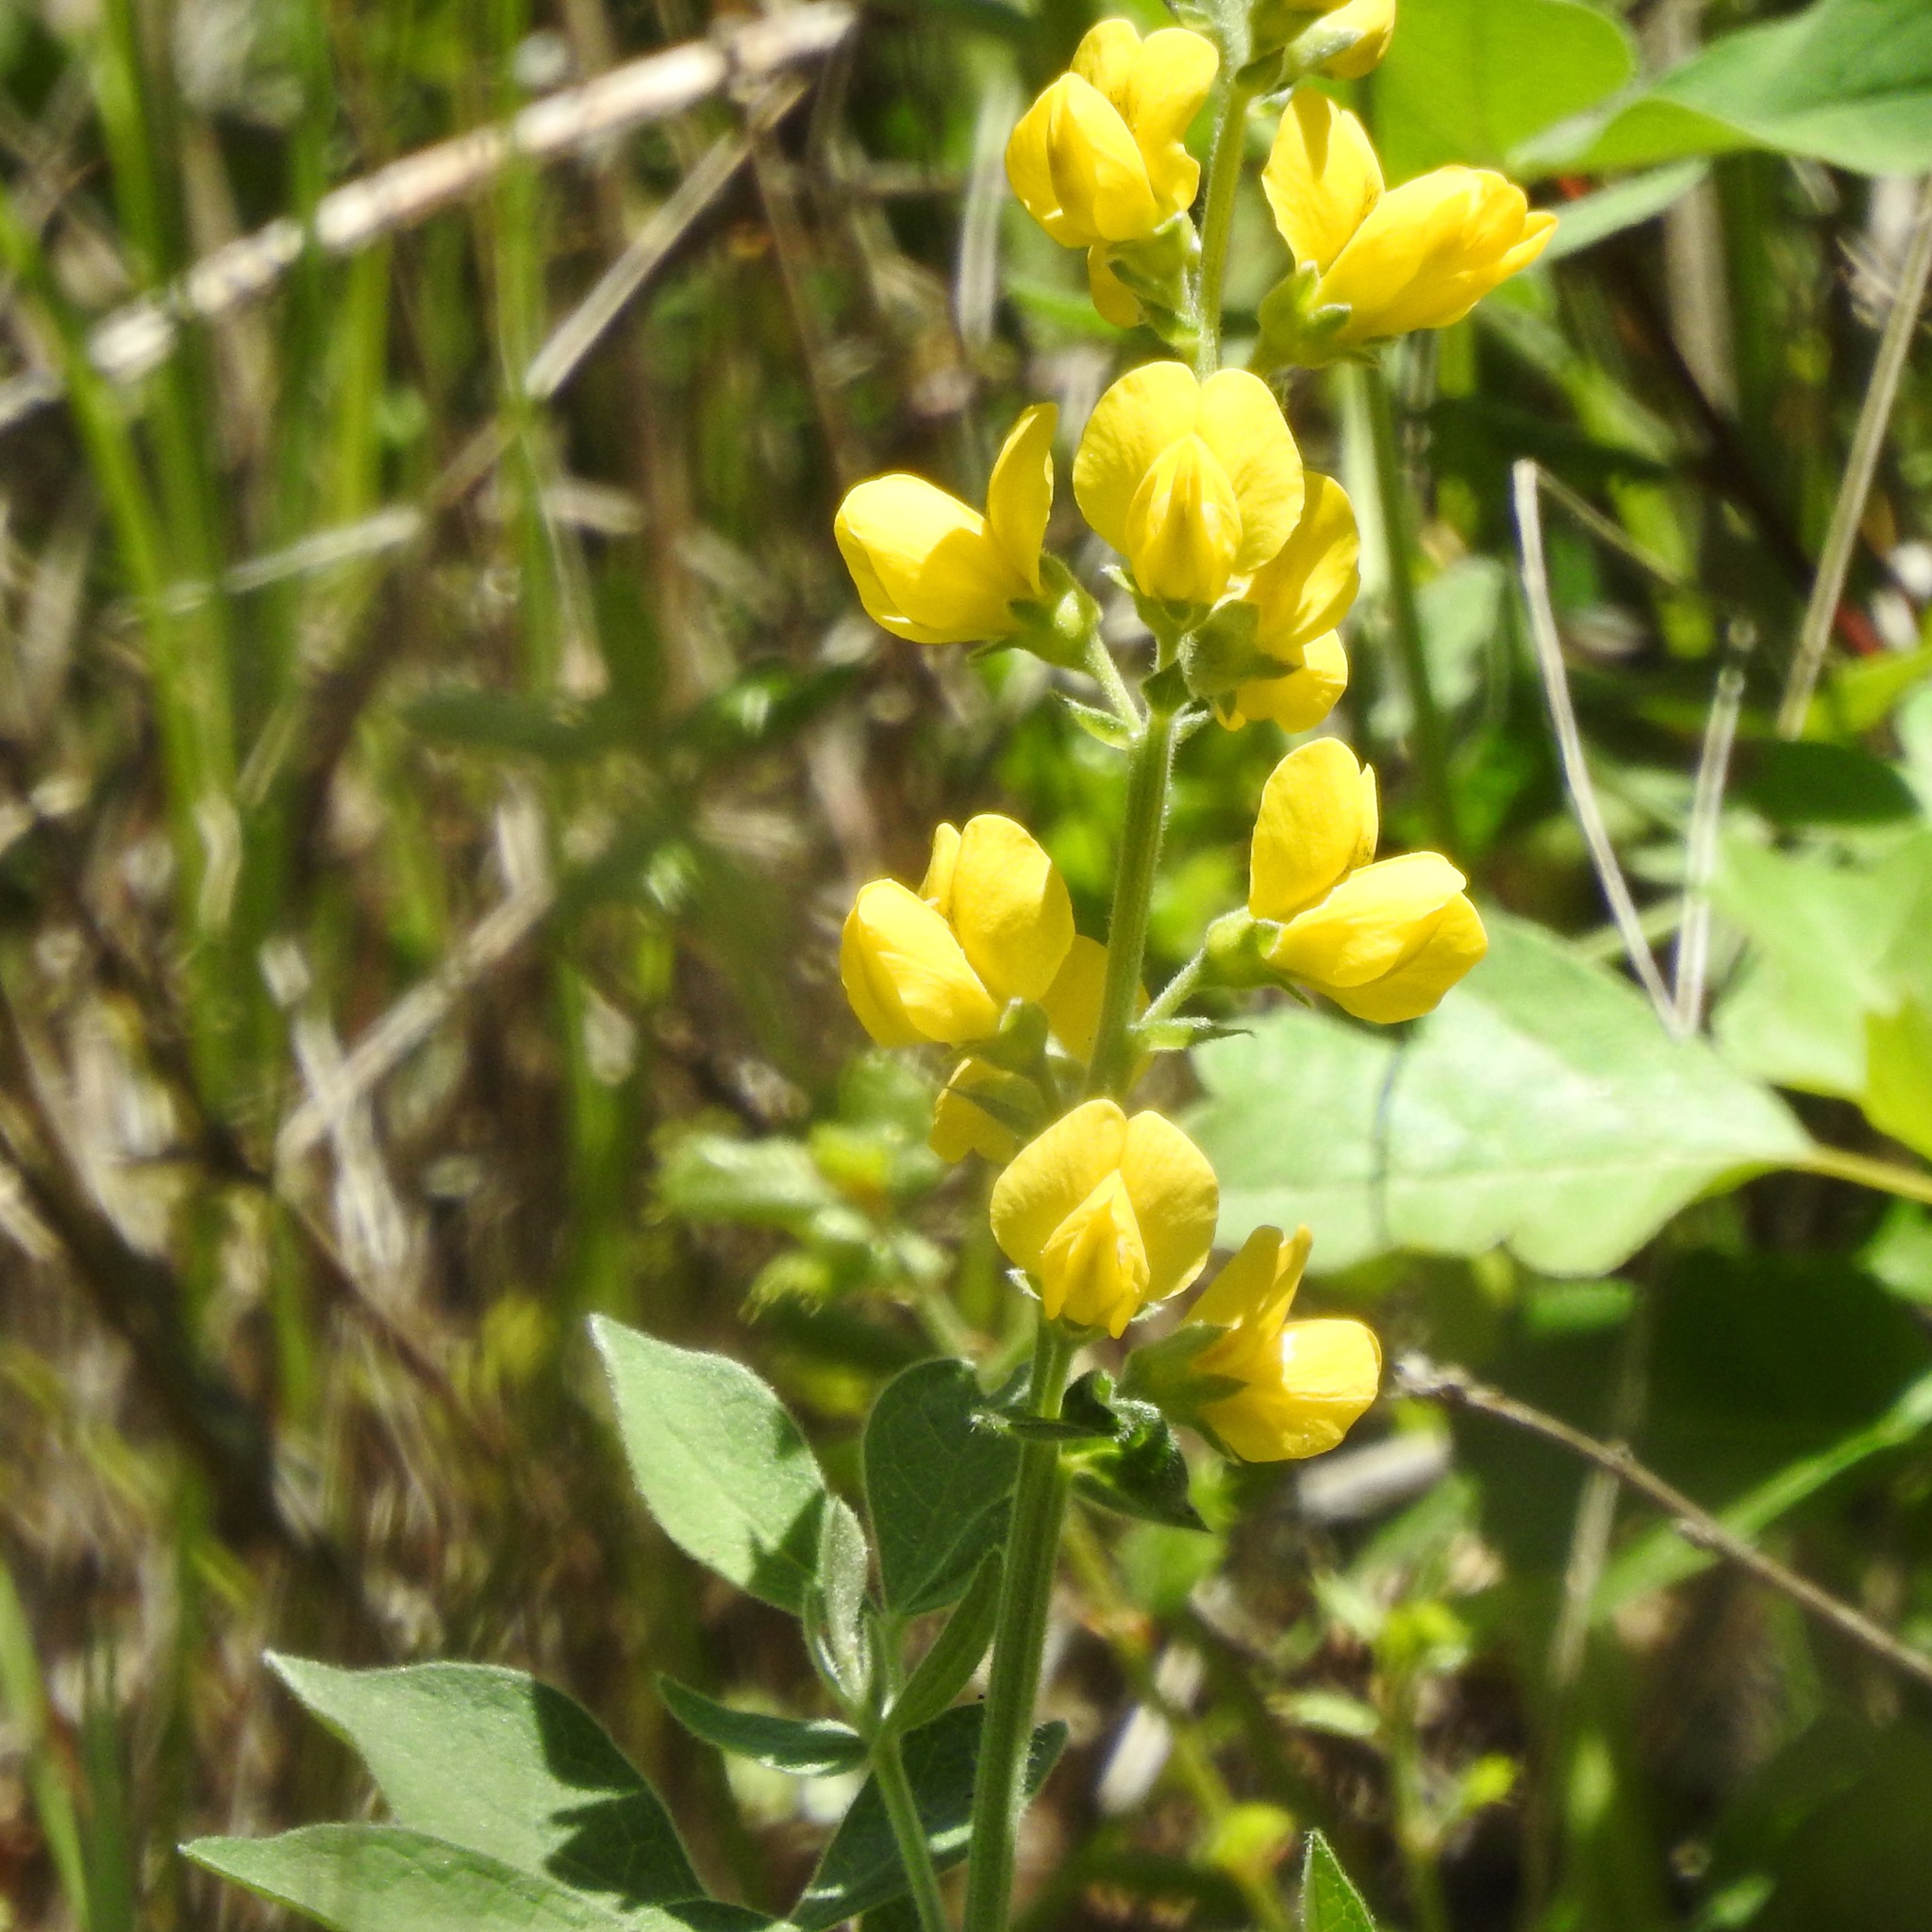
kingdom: Plantae
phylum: Tracheophyta
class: Magnoliopsida
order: Fabales
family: Fabaceae
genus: Thermopsis
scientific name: Thermopsis californica
